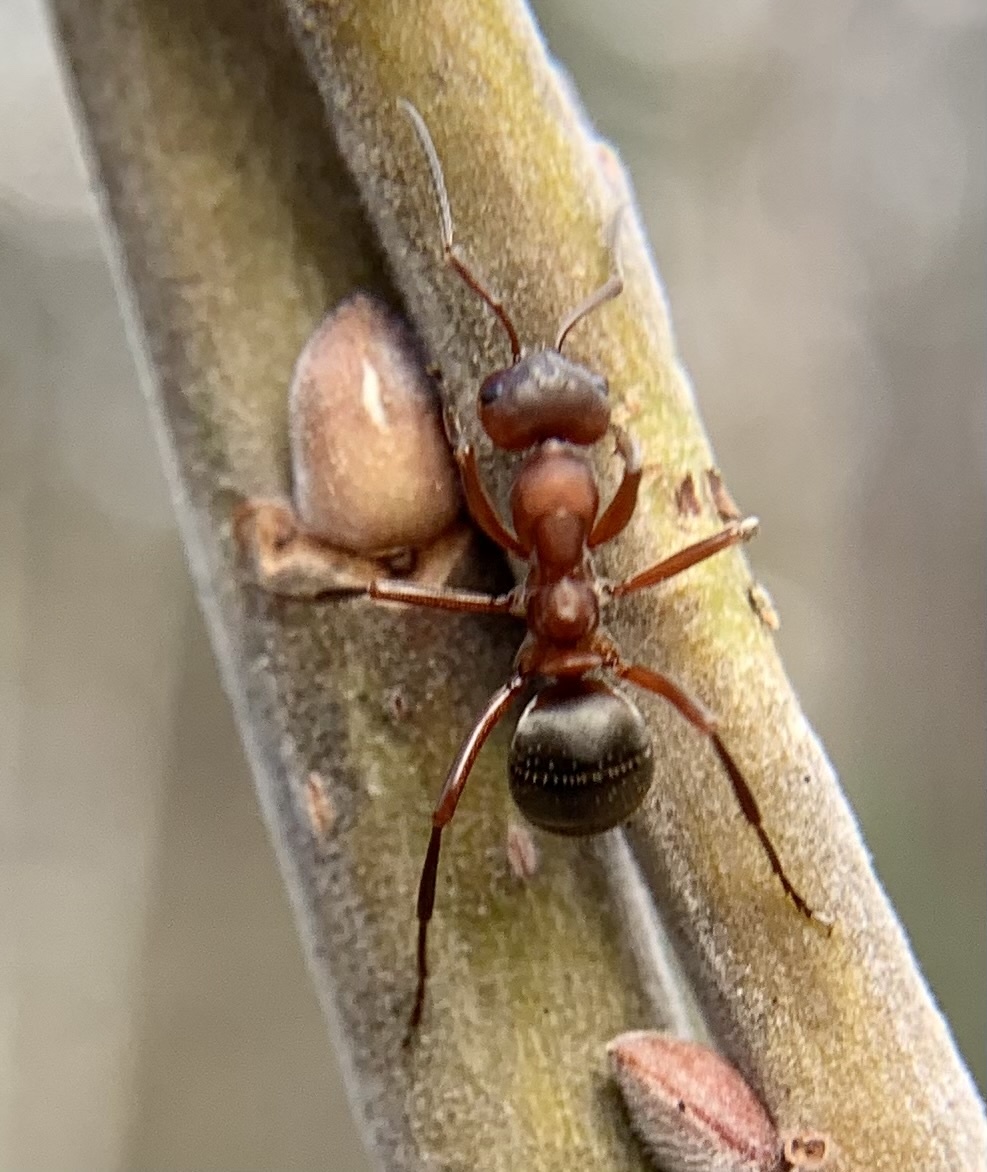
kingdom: Animalia
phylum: Arthropoda
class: Insecta
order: Hymenoptera
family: Formicidae
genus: Formica
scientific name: Formica sanguinea
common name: Blood-red ant
